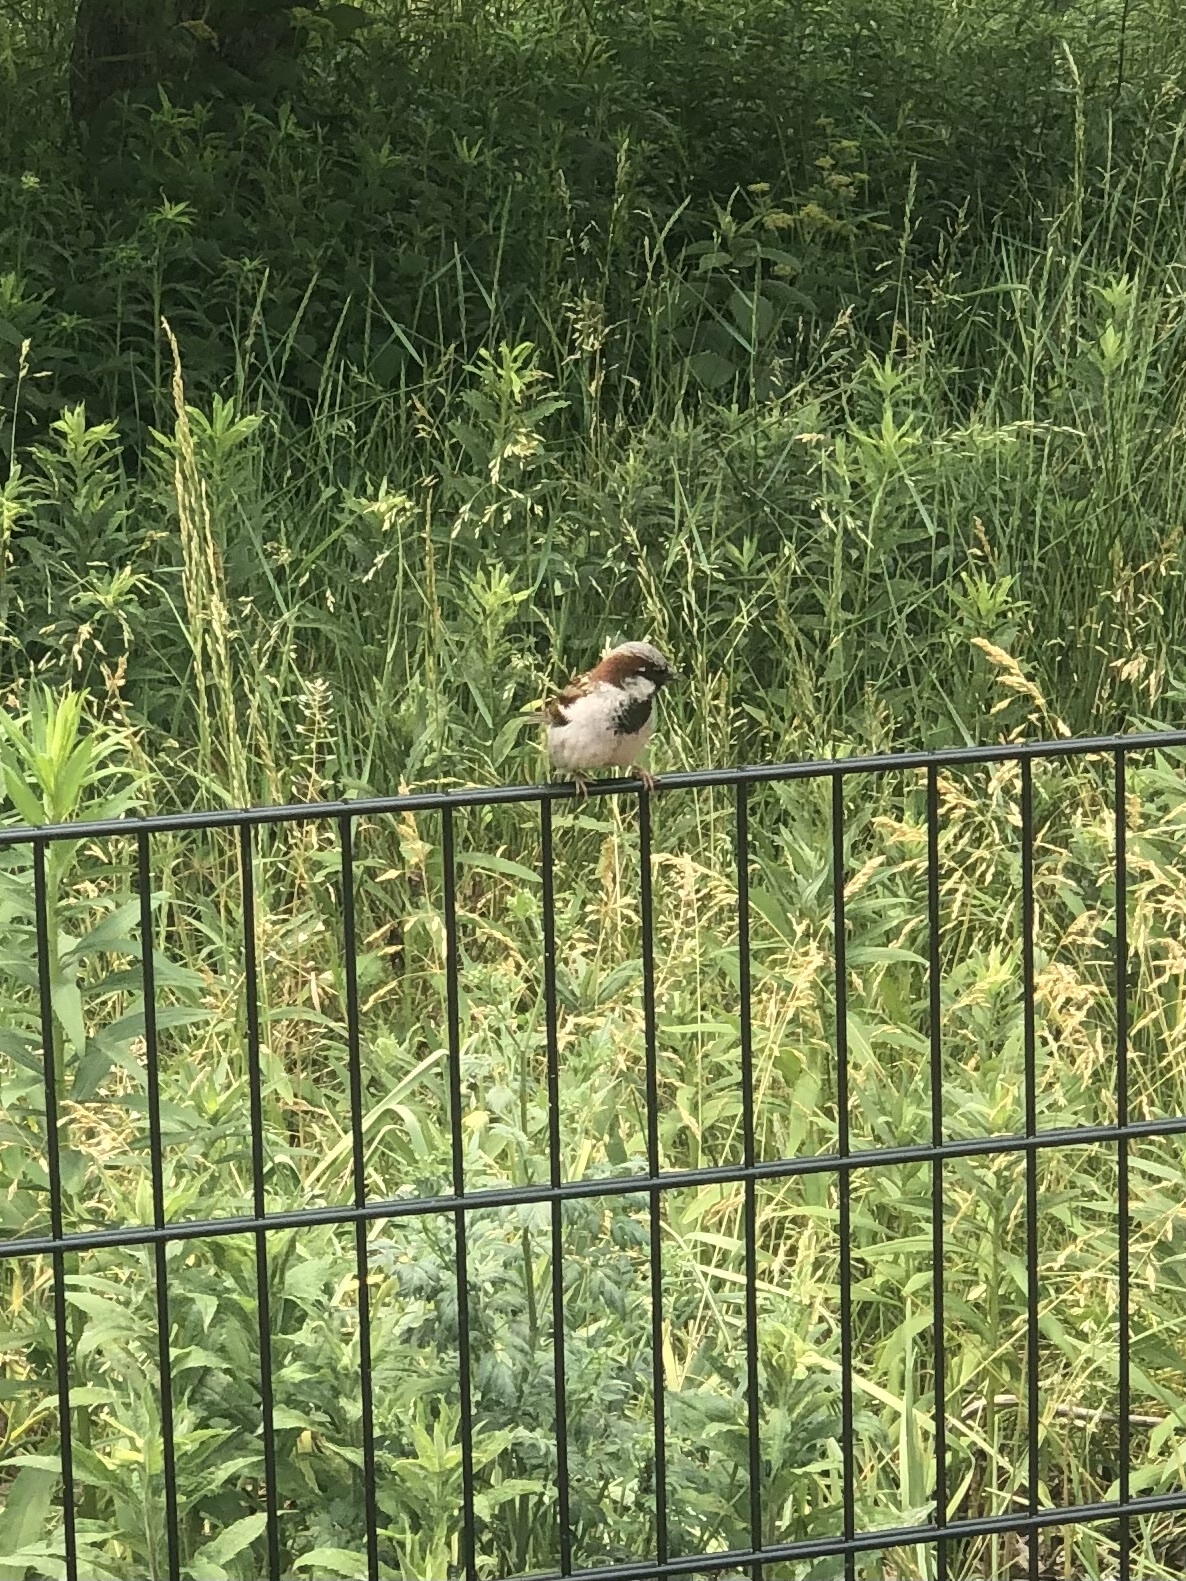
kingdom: Animalia
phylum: Chordata
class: Aves
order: Passeriformes
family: Passeridae
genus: Passer
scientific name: Passer domesticus
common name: House sparrow
